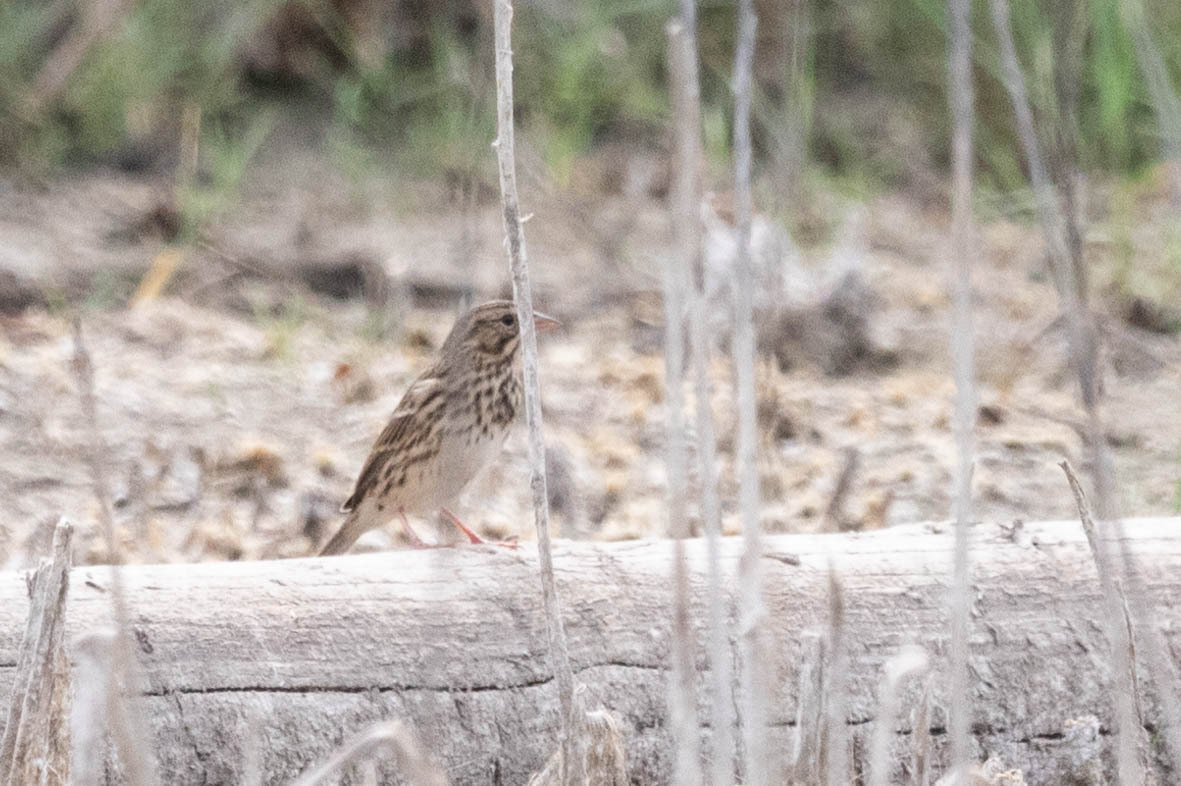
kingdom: Animalia
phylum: Chordata
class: Aves
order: Passeriformes
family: Passerellidae
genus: Passerculus
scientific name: Passerculus sandwichensis
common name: Savannah sparrow
